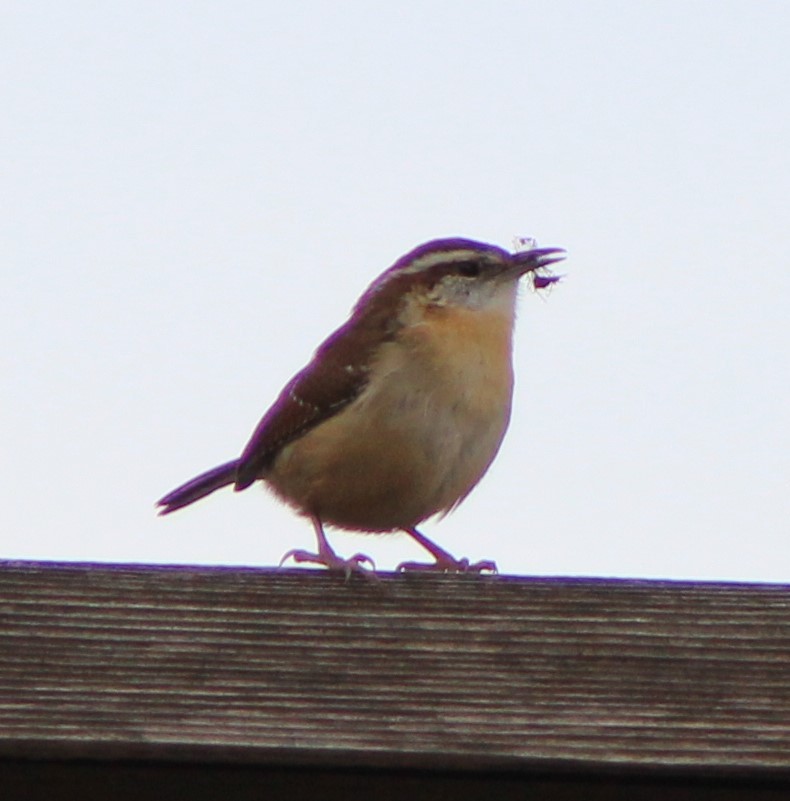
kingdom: Animalia
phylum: Chordata
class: Aves
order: Passeriformes
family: Troglodytidae
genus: Thryothorus
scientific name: Thryothorus ludovicianus
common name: Carolina wren
